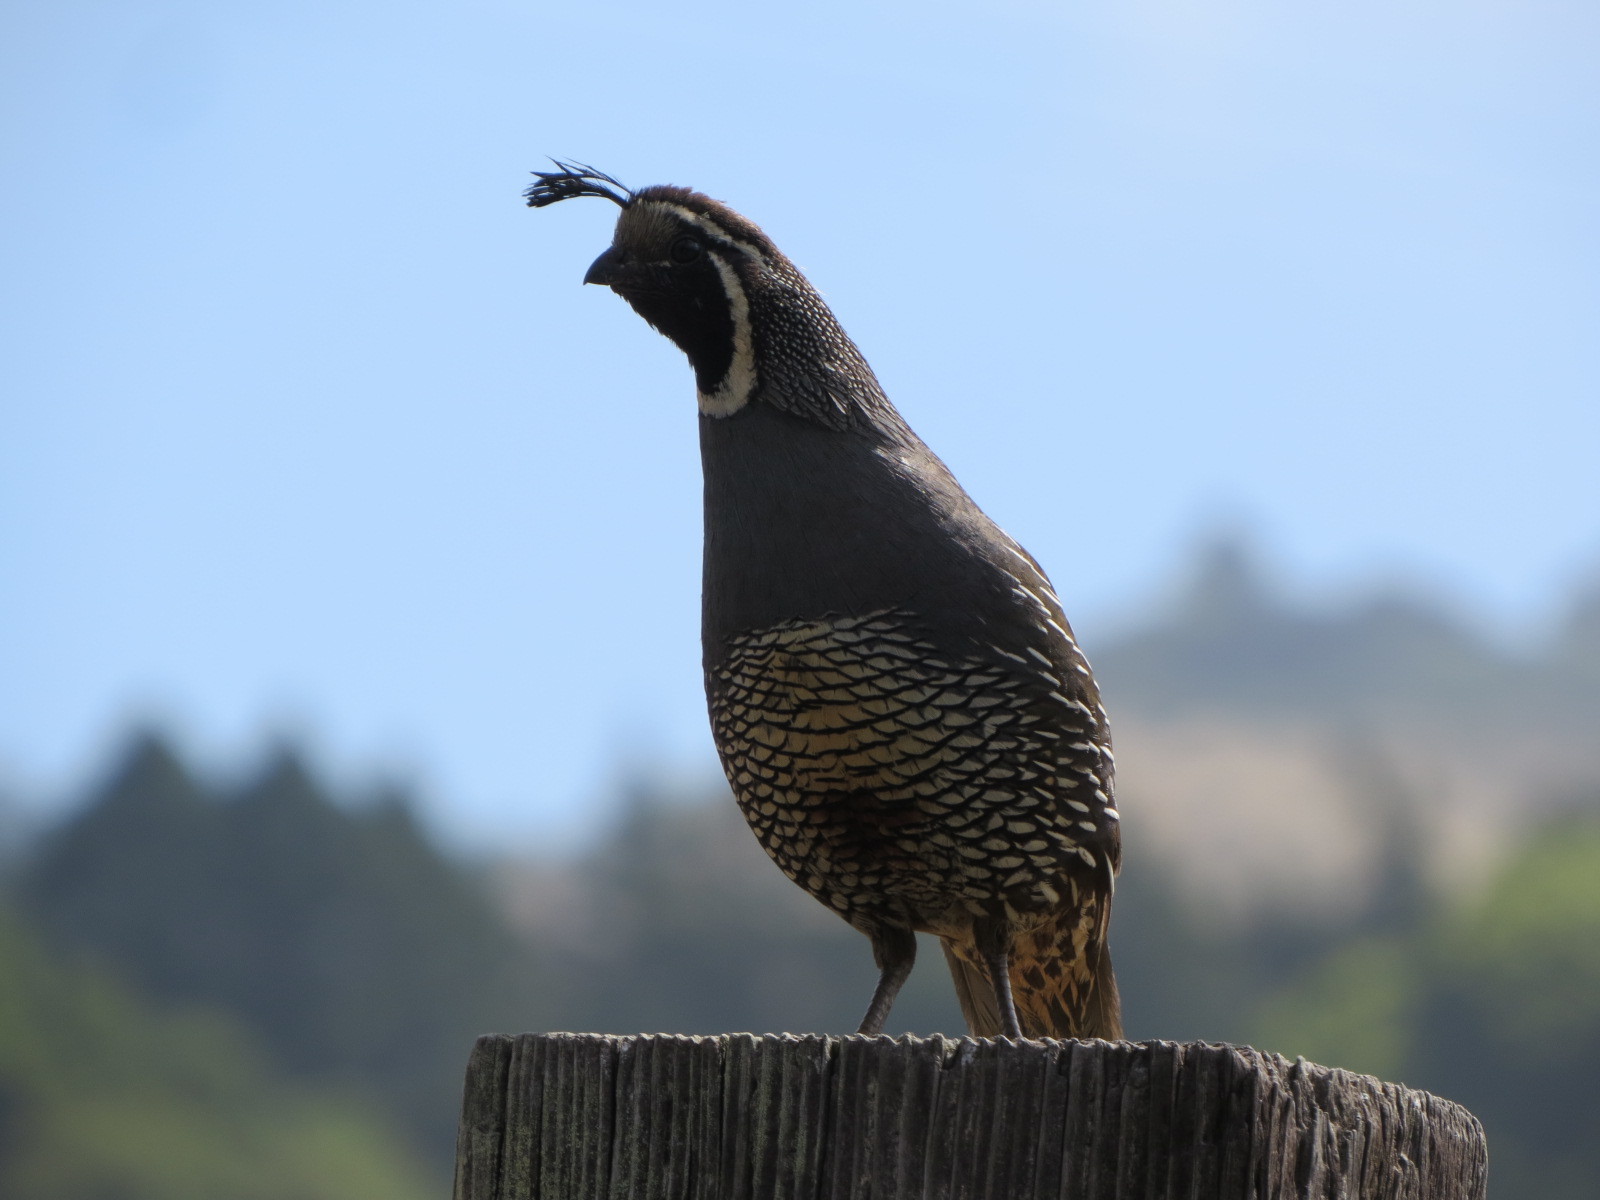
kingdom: Animalia
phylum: Chordata
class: Aves
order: Galliformes
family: Odontophoridae
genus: Callipepla
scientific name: Callipepla californica
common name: California quail
